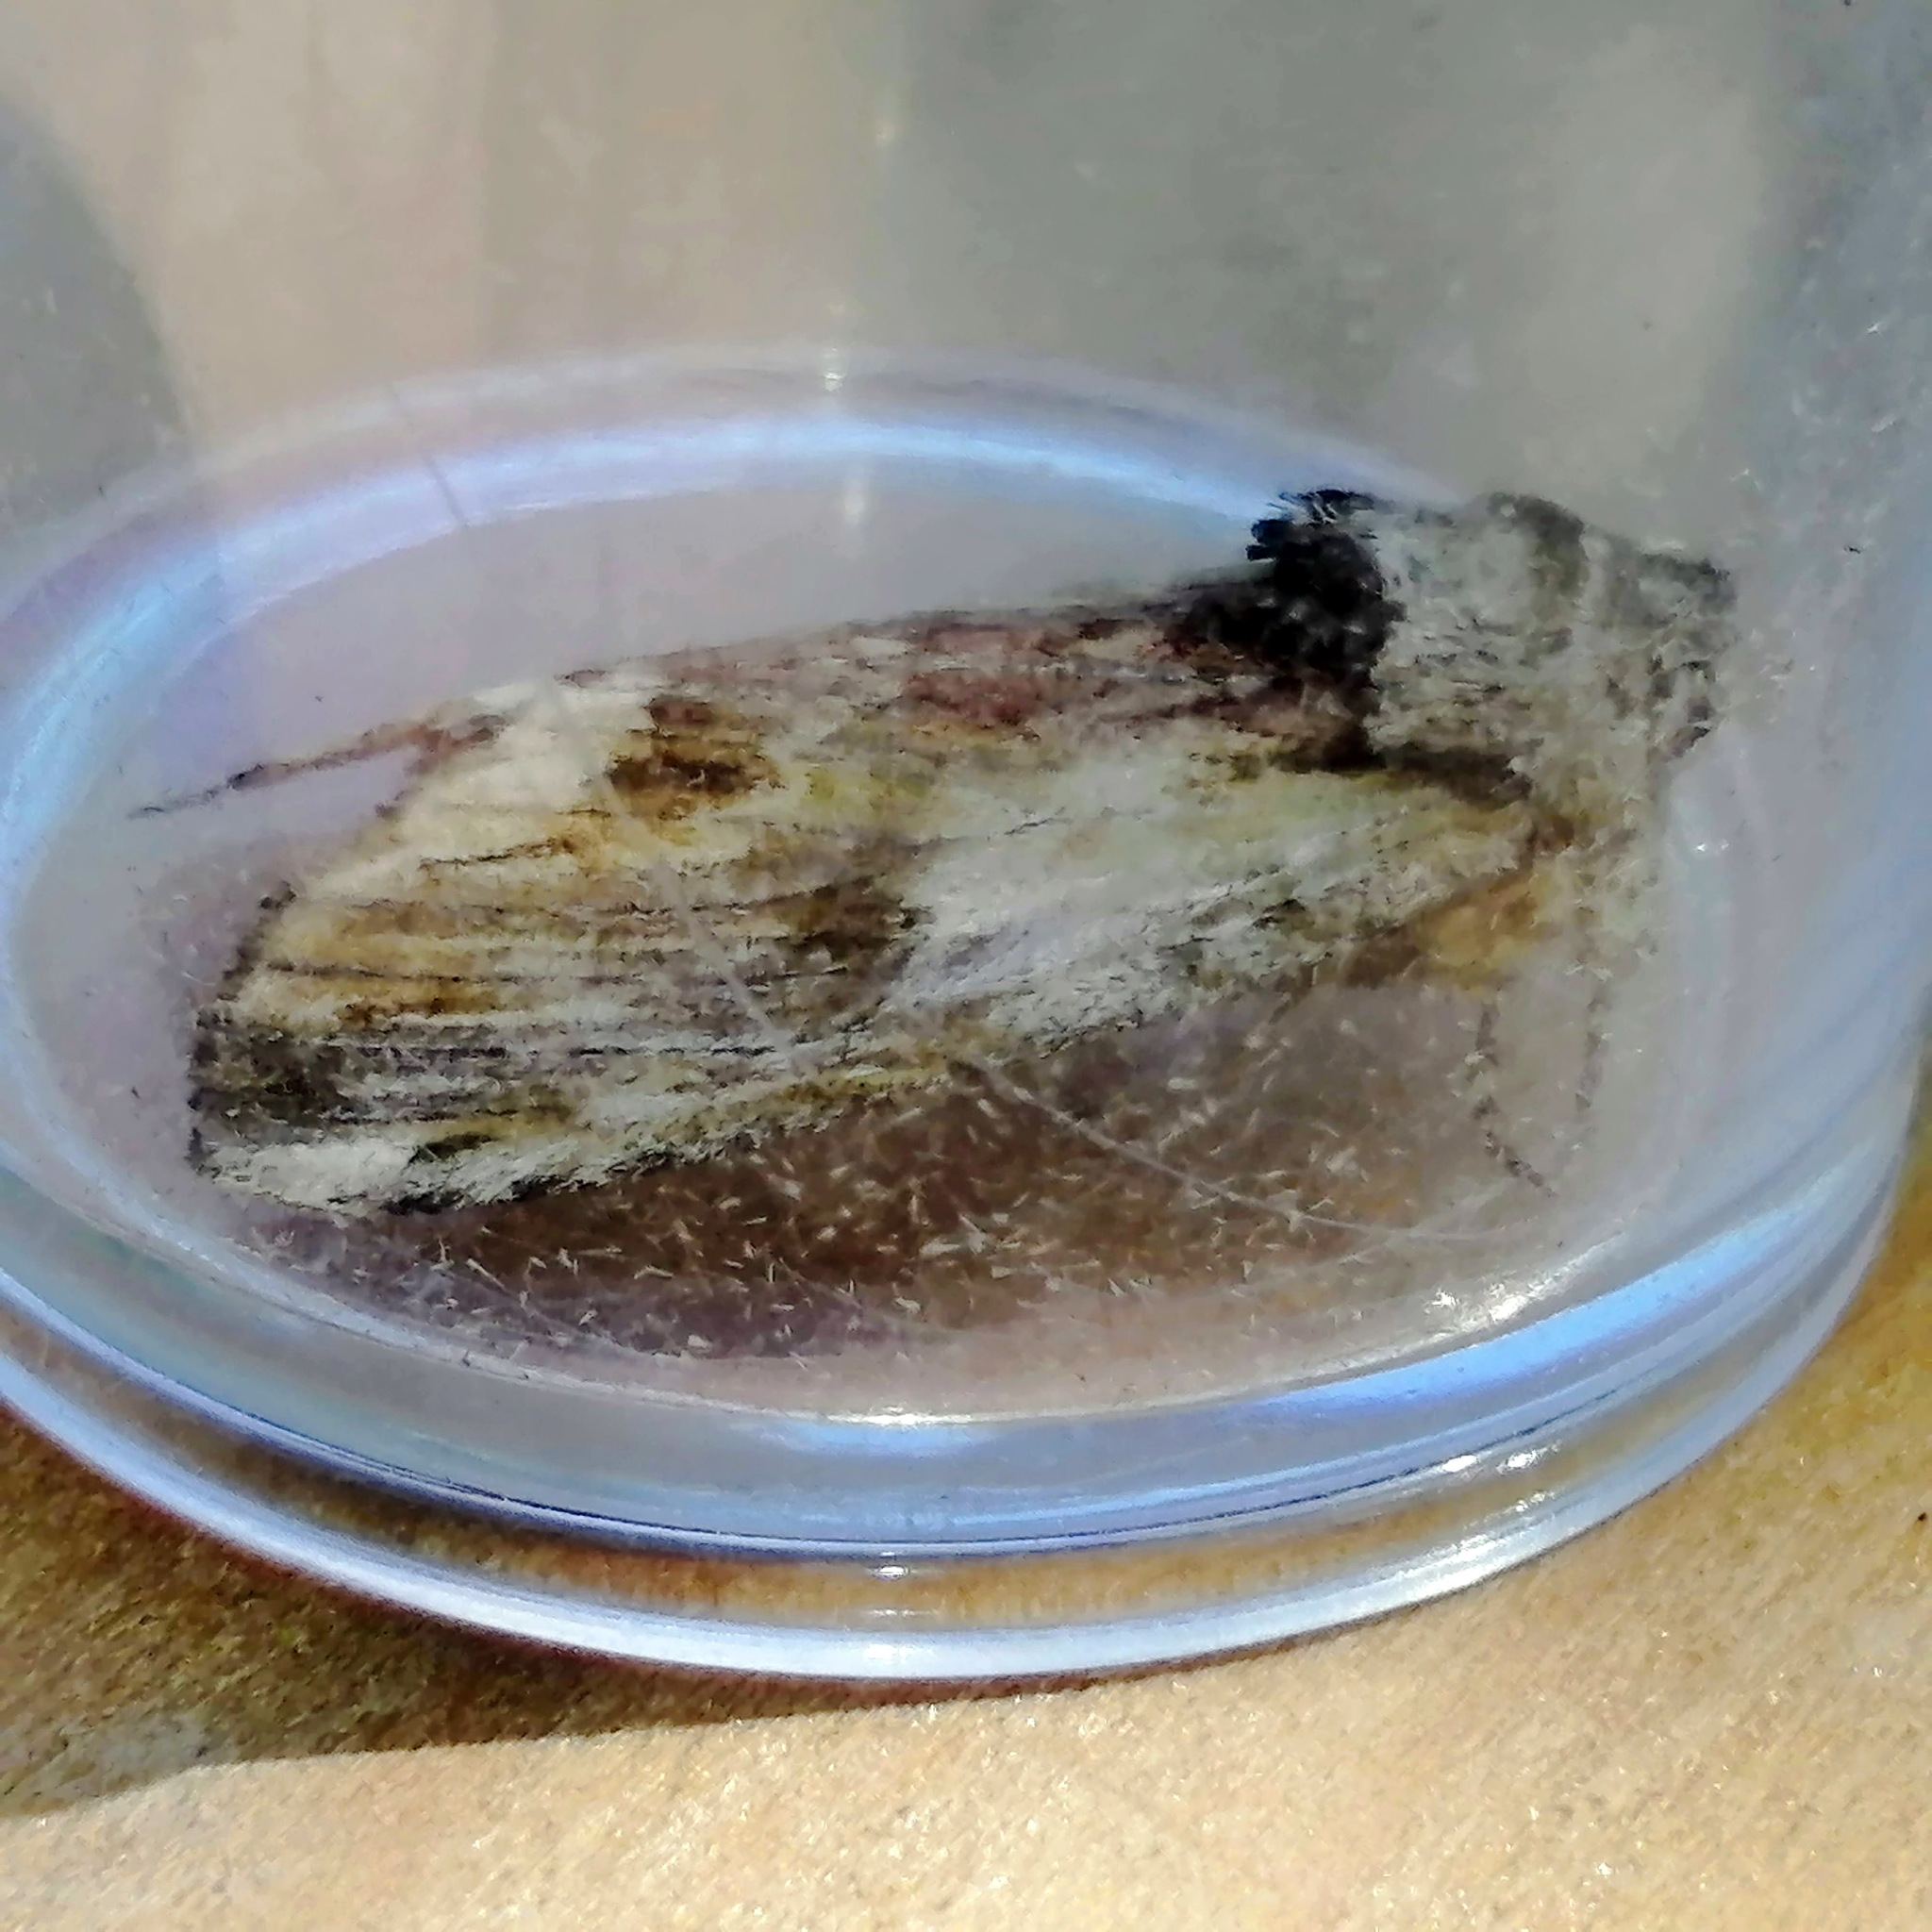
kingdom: Animalia
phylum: Arthropoda
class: Insecta
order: Lepidoptera
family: Notodontidae
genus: Schizura
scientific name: Schizura
